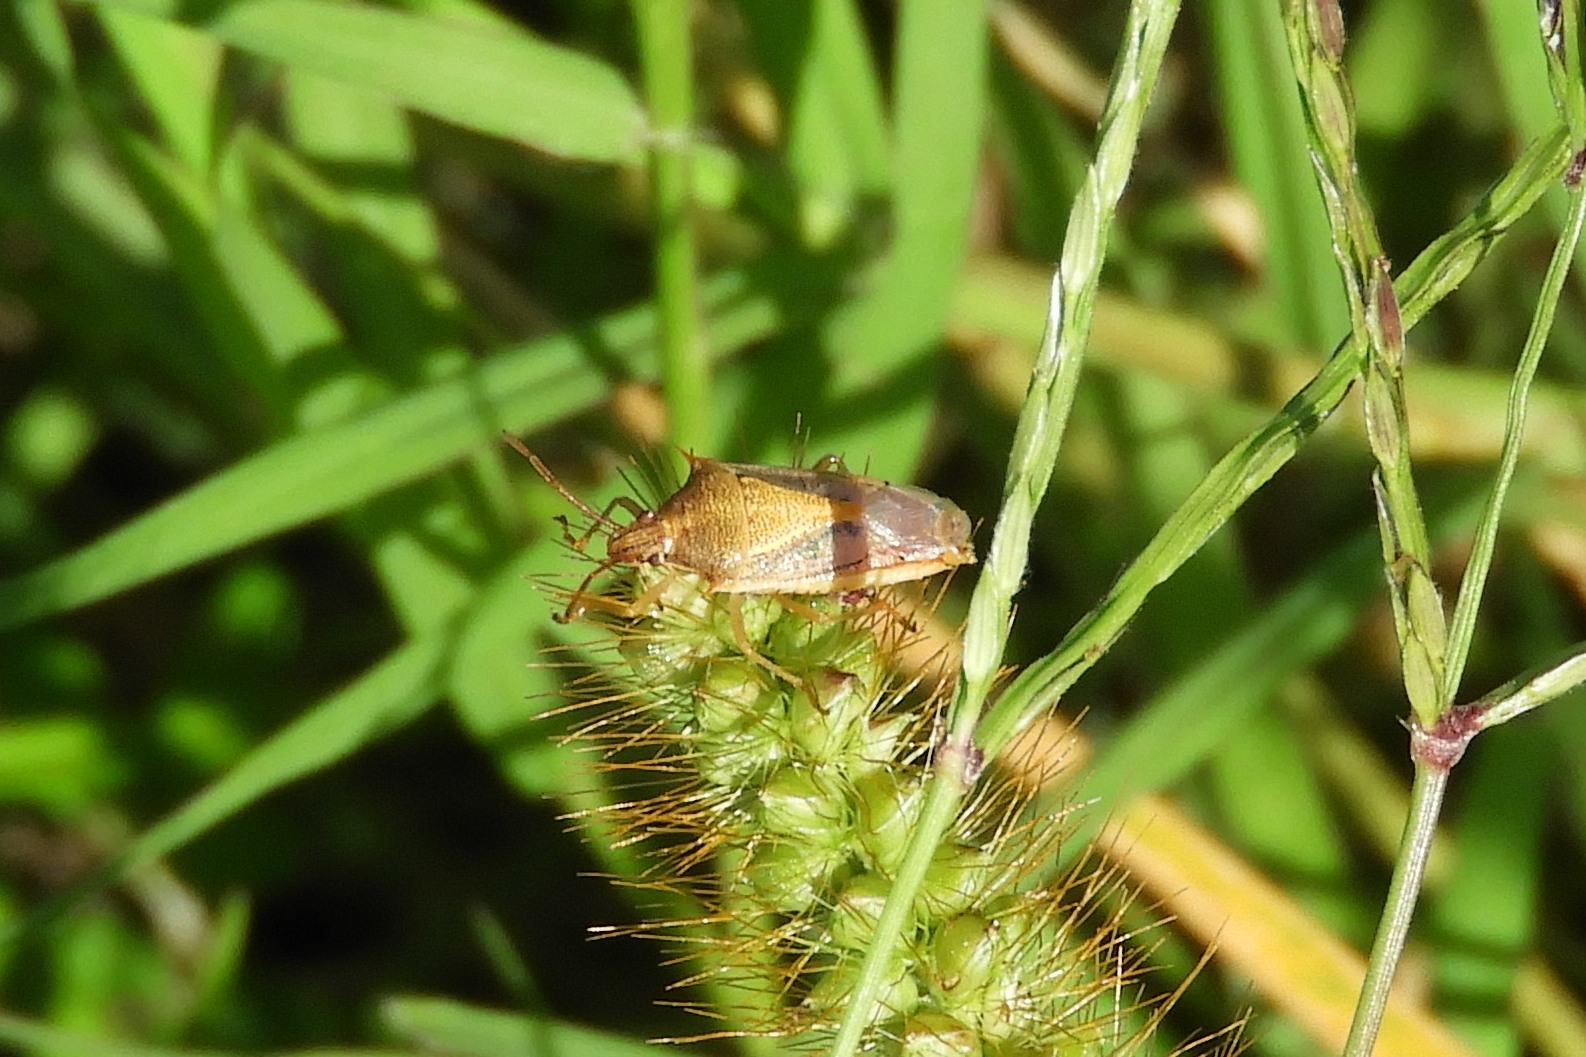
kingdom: Animalia
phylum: Arthropoda
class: Insecta
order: Hemiptera
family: Pentatomidae
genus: Oebalus
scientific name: Oebalus pugnax
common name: Rice stink bug
